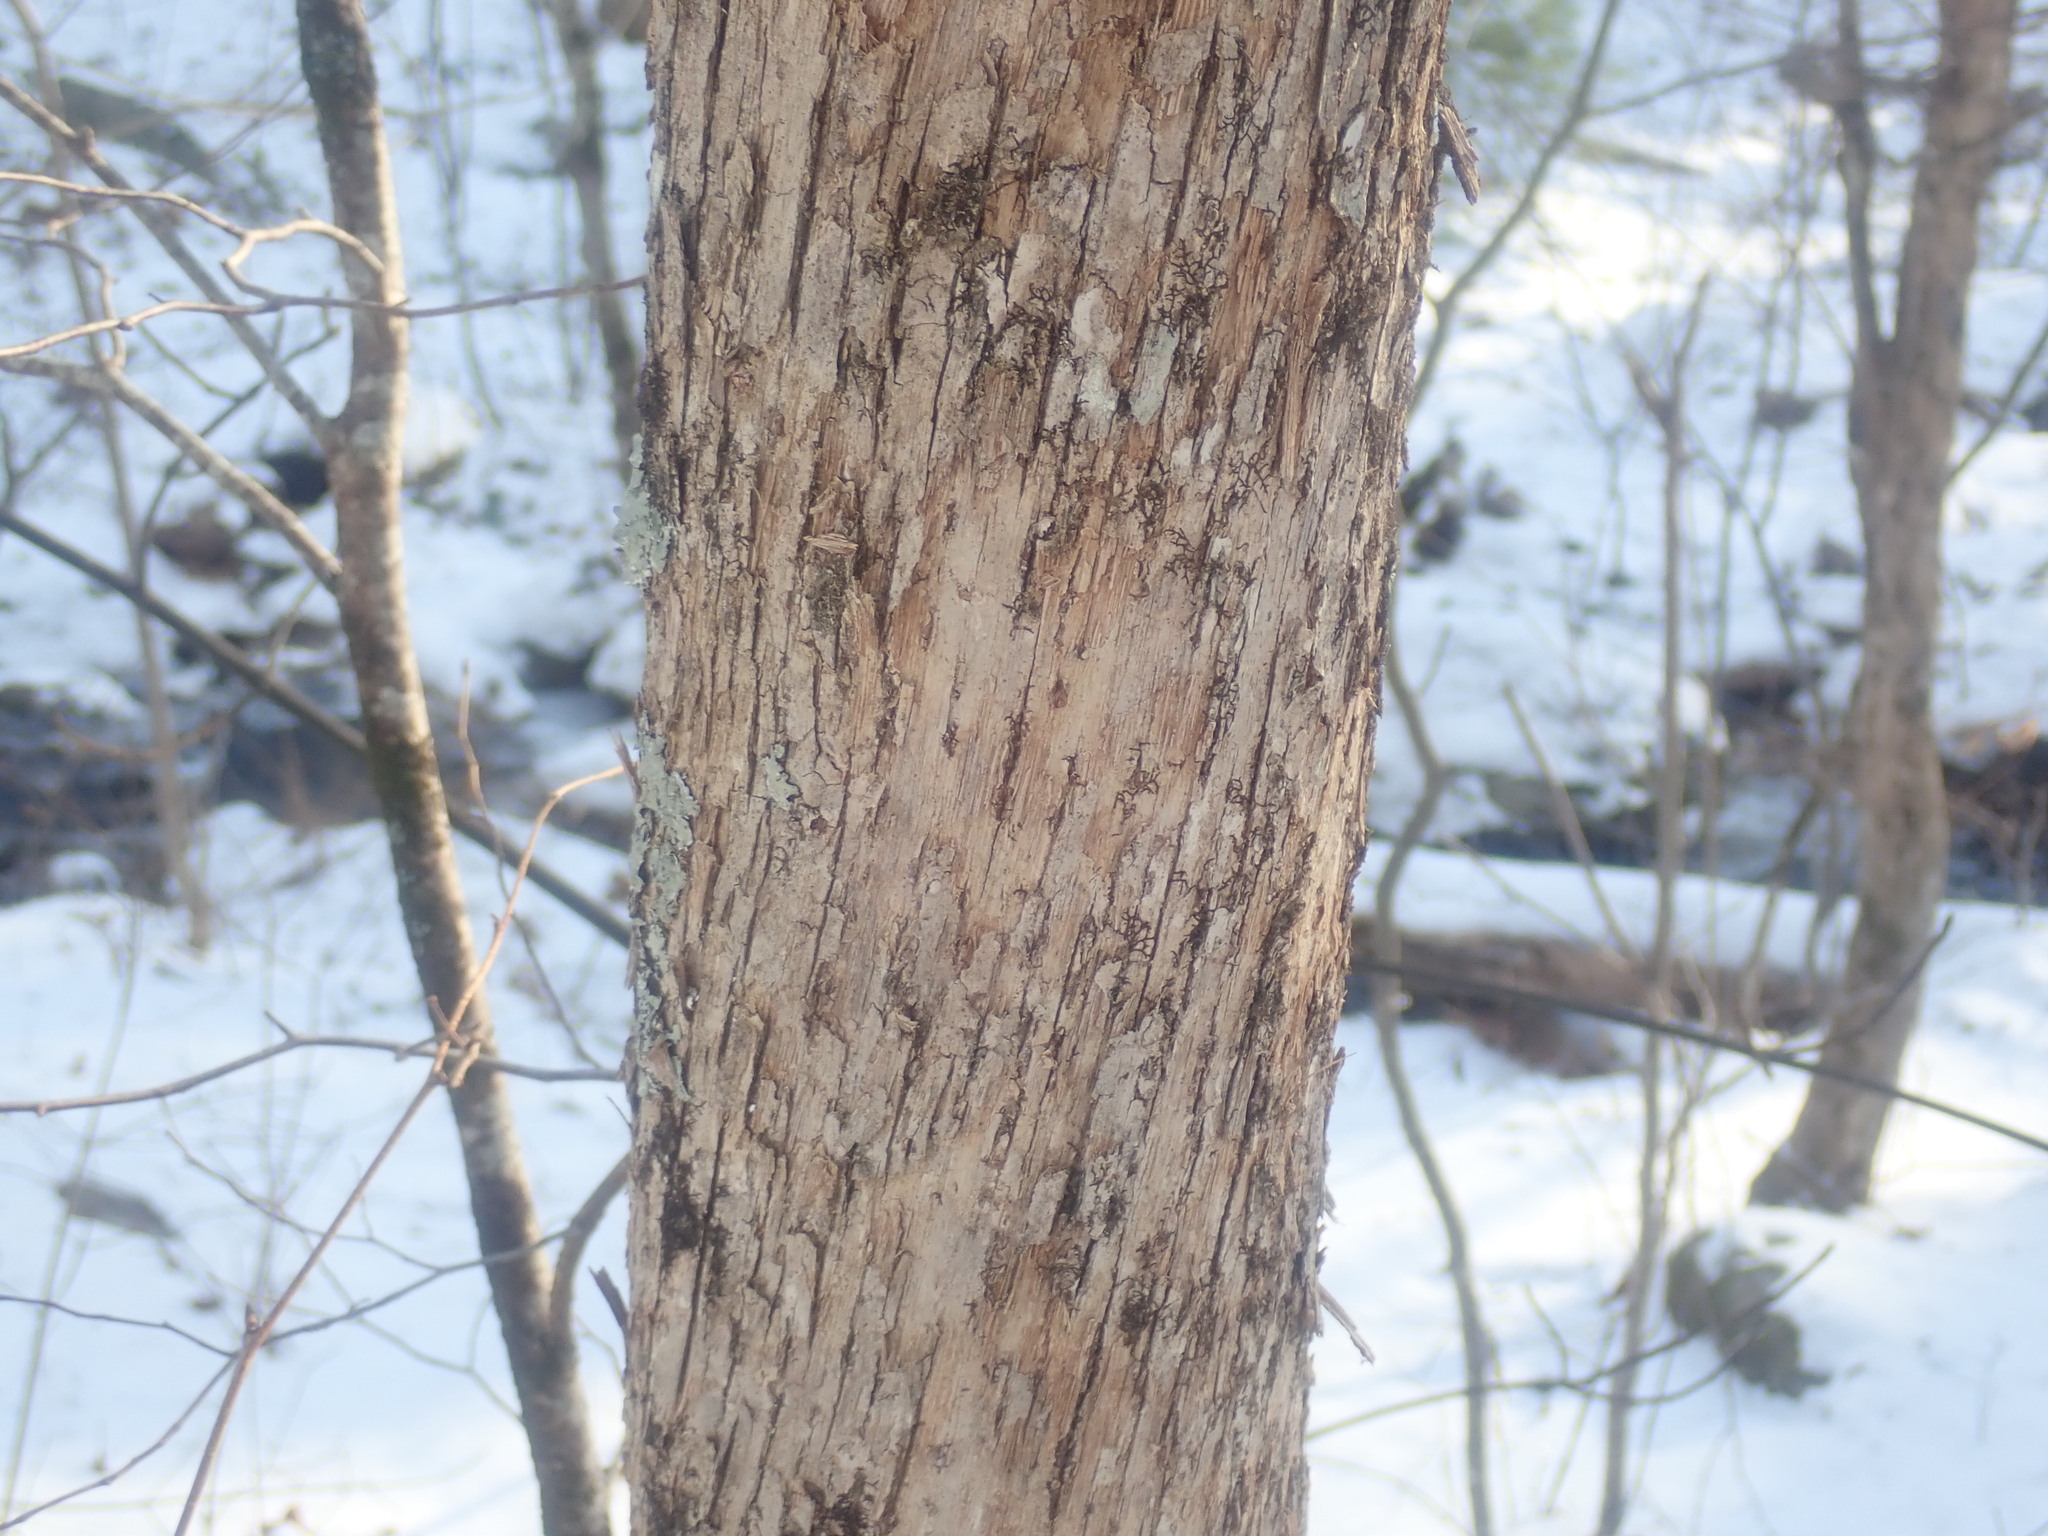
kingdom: Plantae
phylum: Tracheophyta
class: Magnoliopsida
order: Fagales
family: Betulaceae
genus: Ostrya
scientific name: Ostrya virginiana
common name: Ironwood
